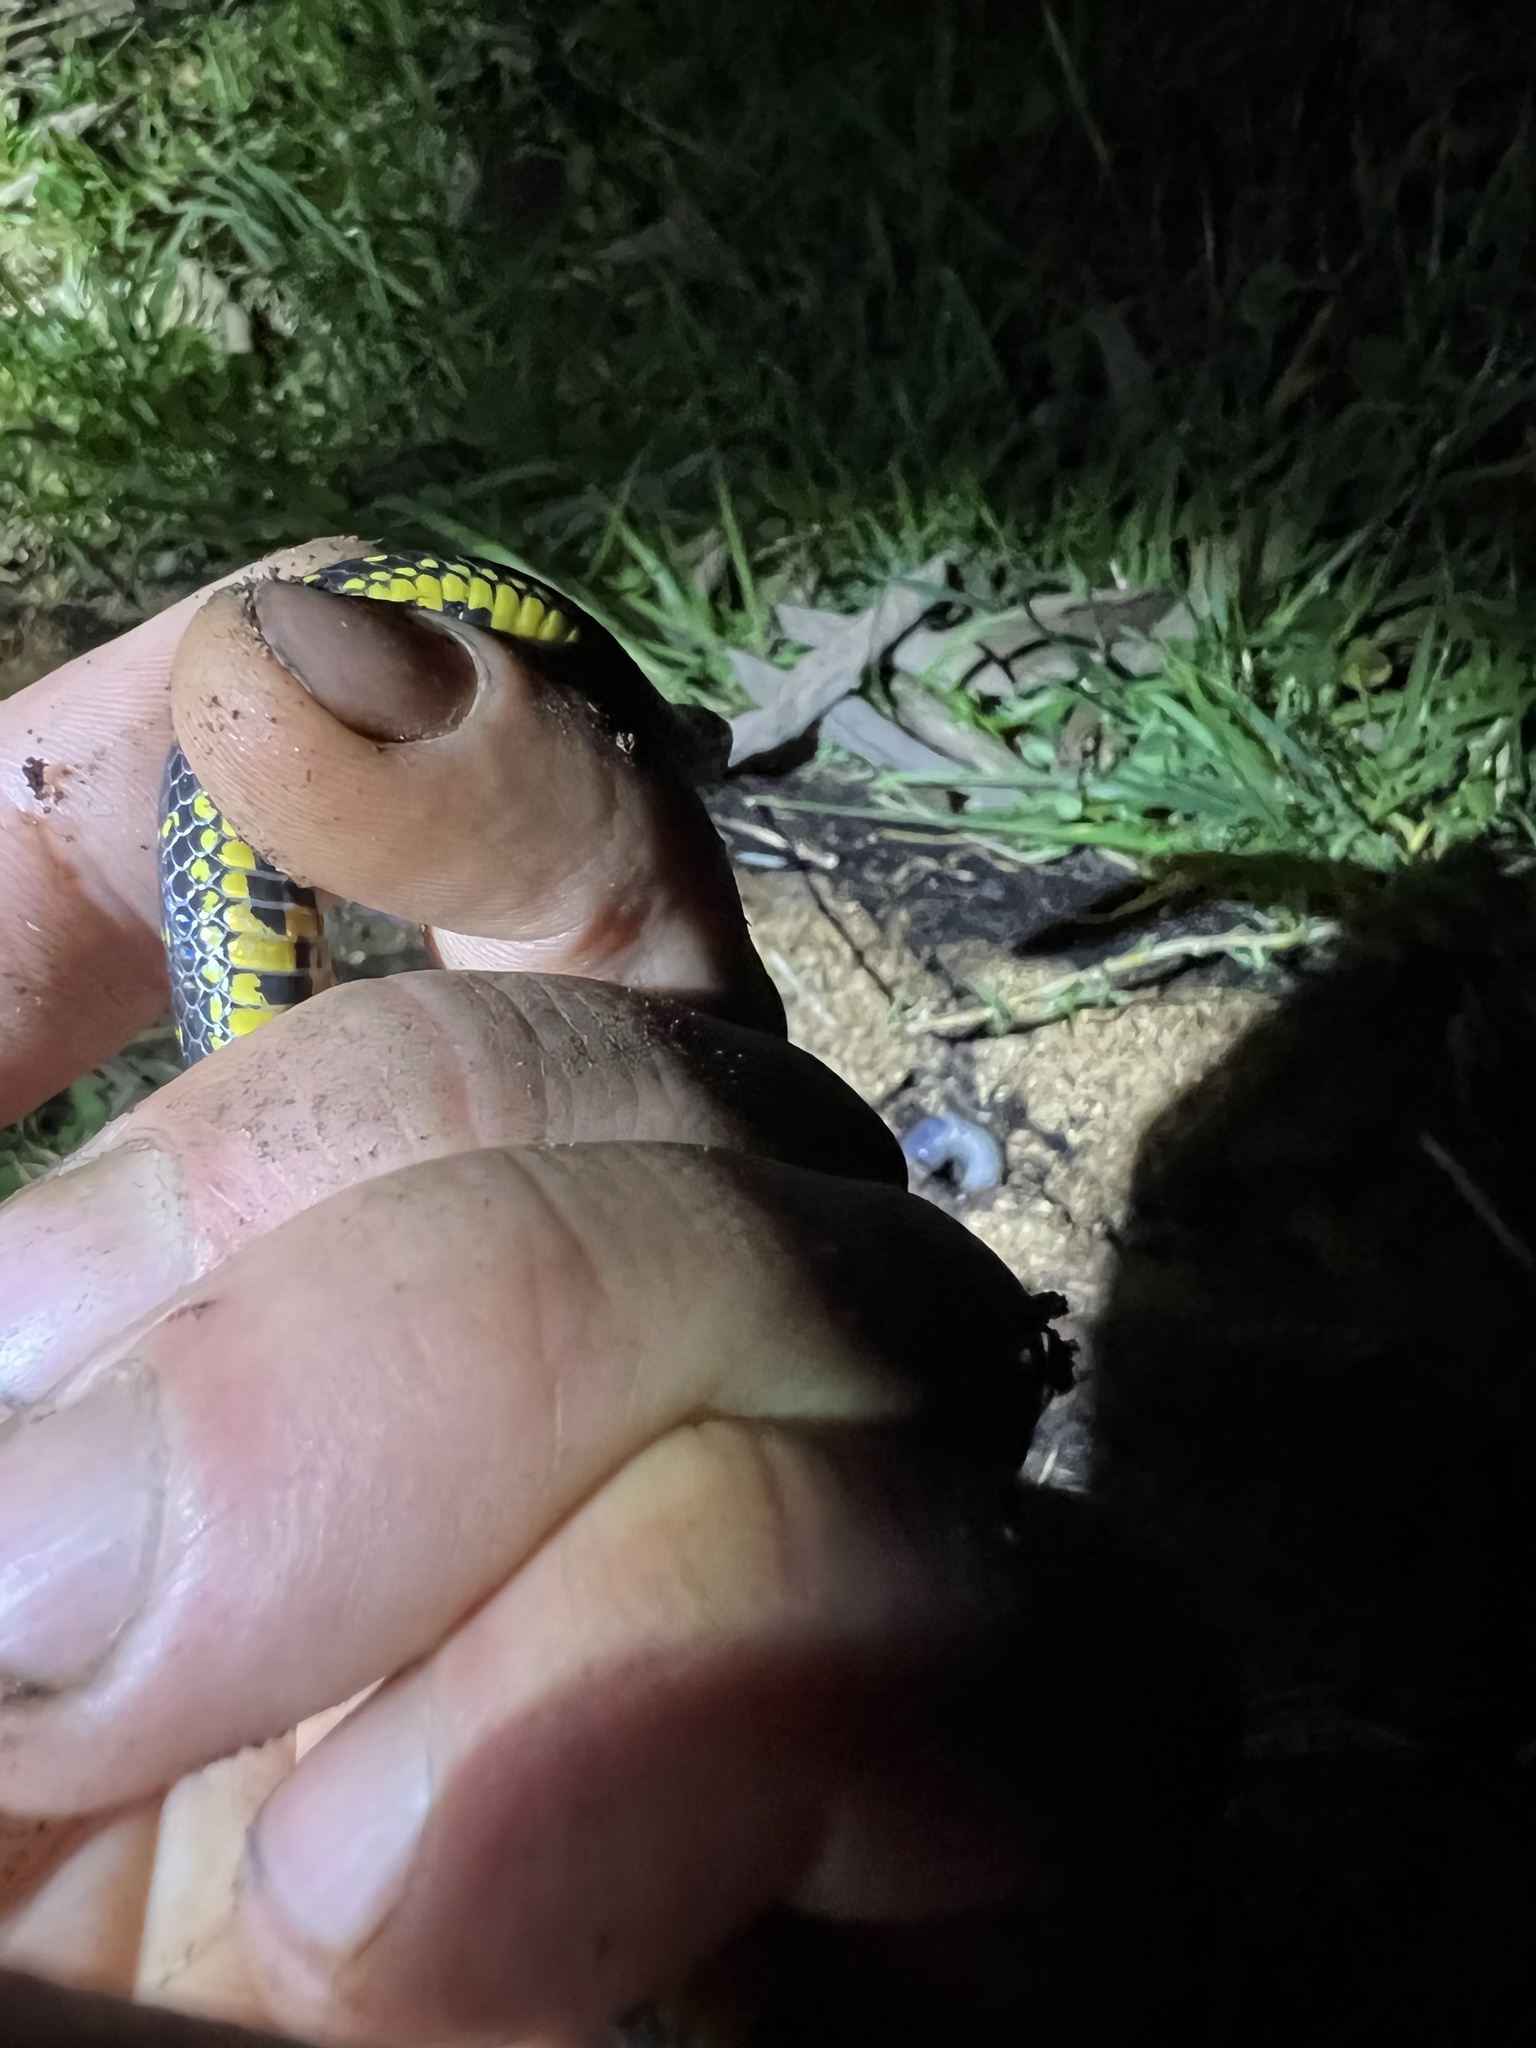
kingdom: Animalia
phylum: Chordata
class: Squamata
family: Colubridae
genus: Atractus
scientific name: Atractus crassicaudatus
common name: Thickhead ground snake
